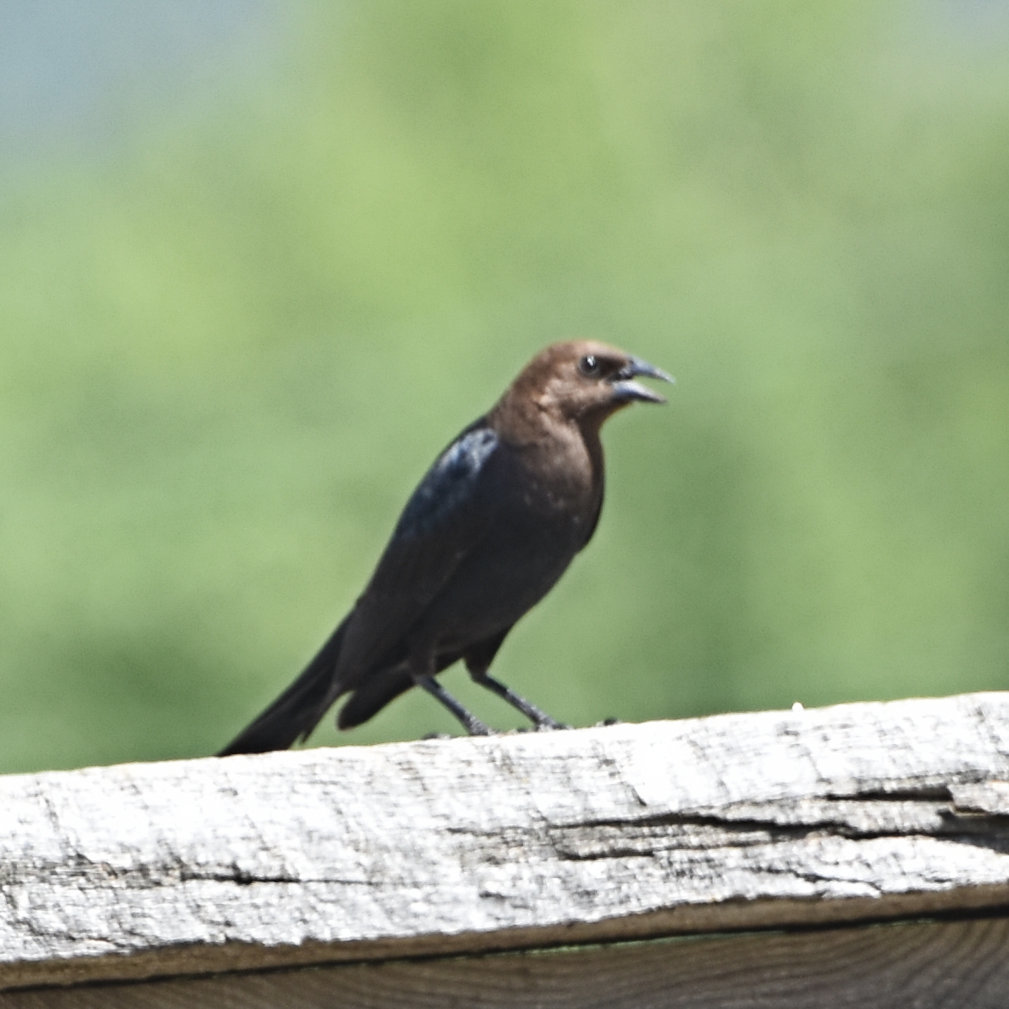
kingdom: Animalia
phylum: Chordata
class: Aves
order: Passeriformes
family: Icteridae
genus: Molothrus
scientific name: Molothrus ater
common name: Brown-headed cowbird
